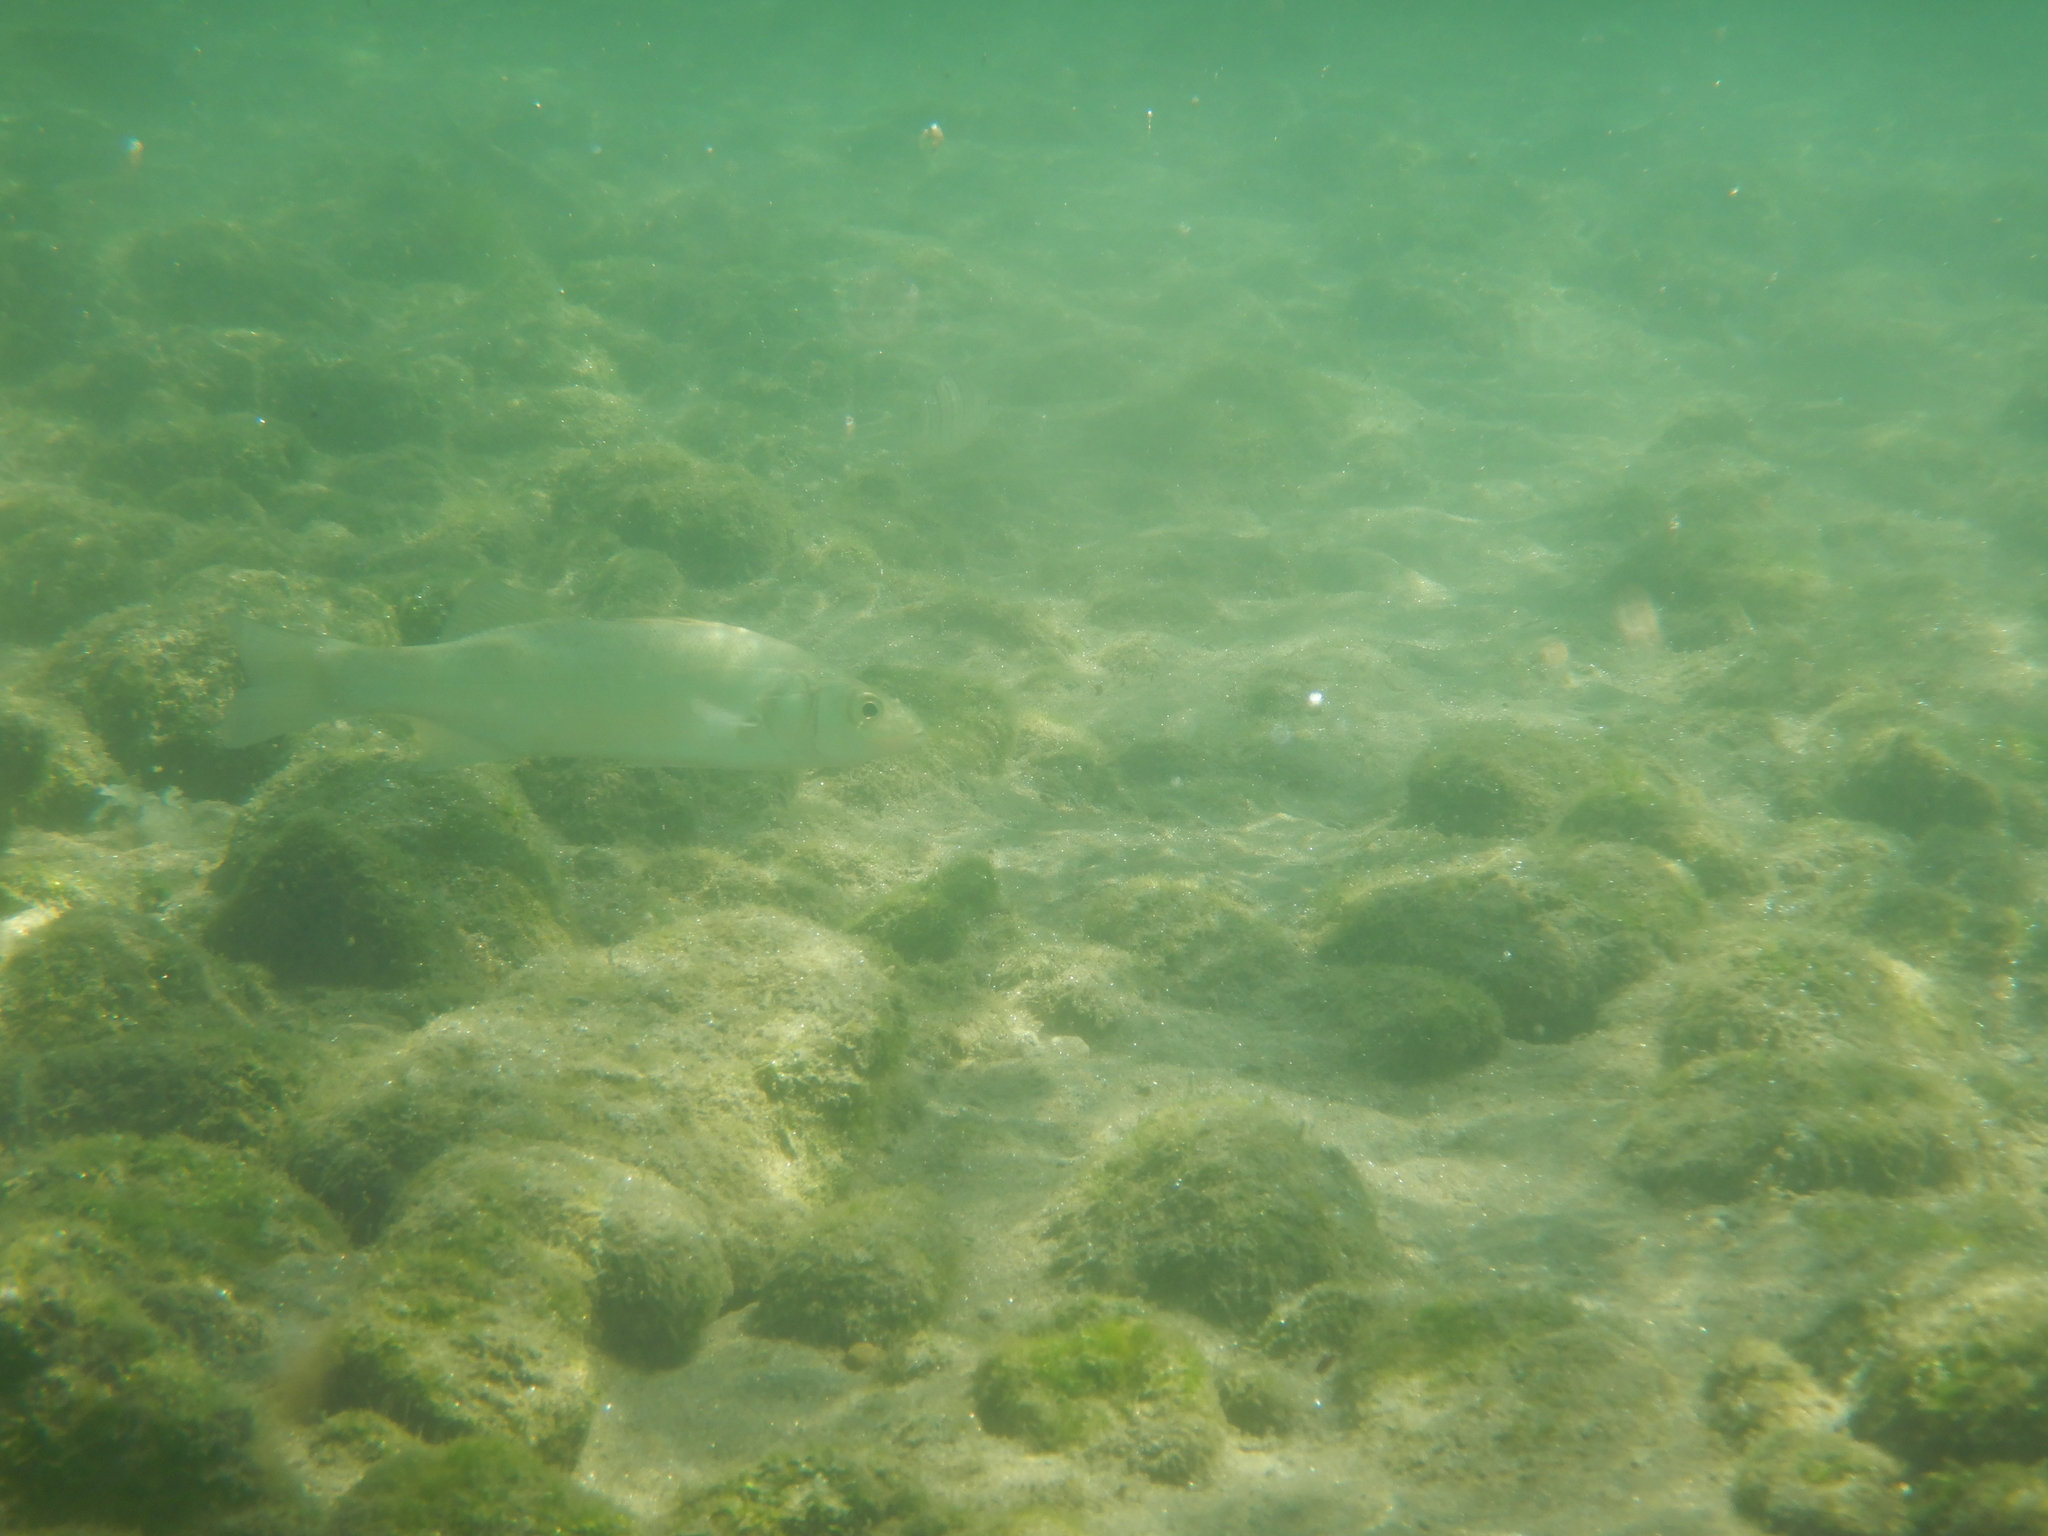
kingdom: Animalia
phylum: Chordata
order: Perciformes
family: Moronidae
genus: Dicentrarchus
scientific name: Dicentrarchus labrax
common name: European seabass
